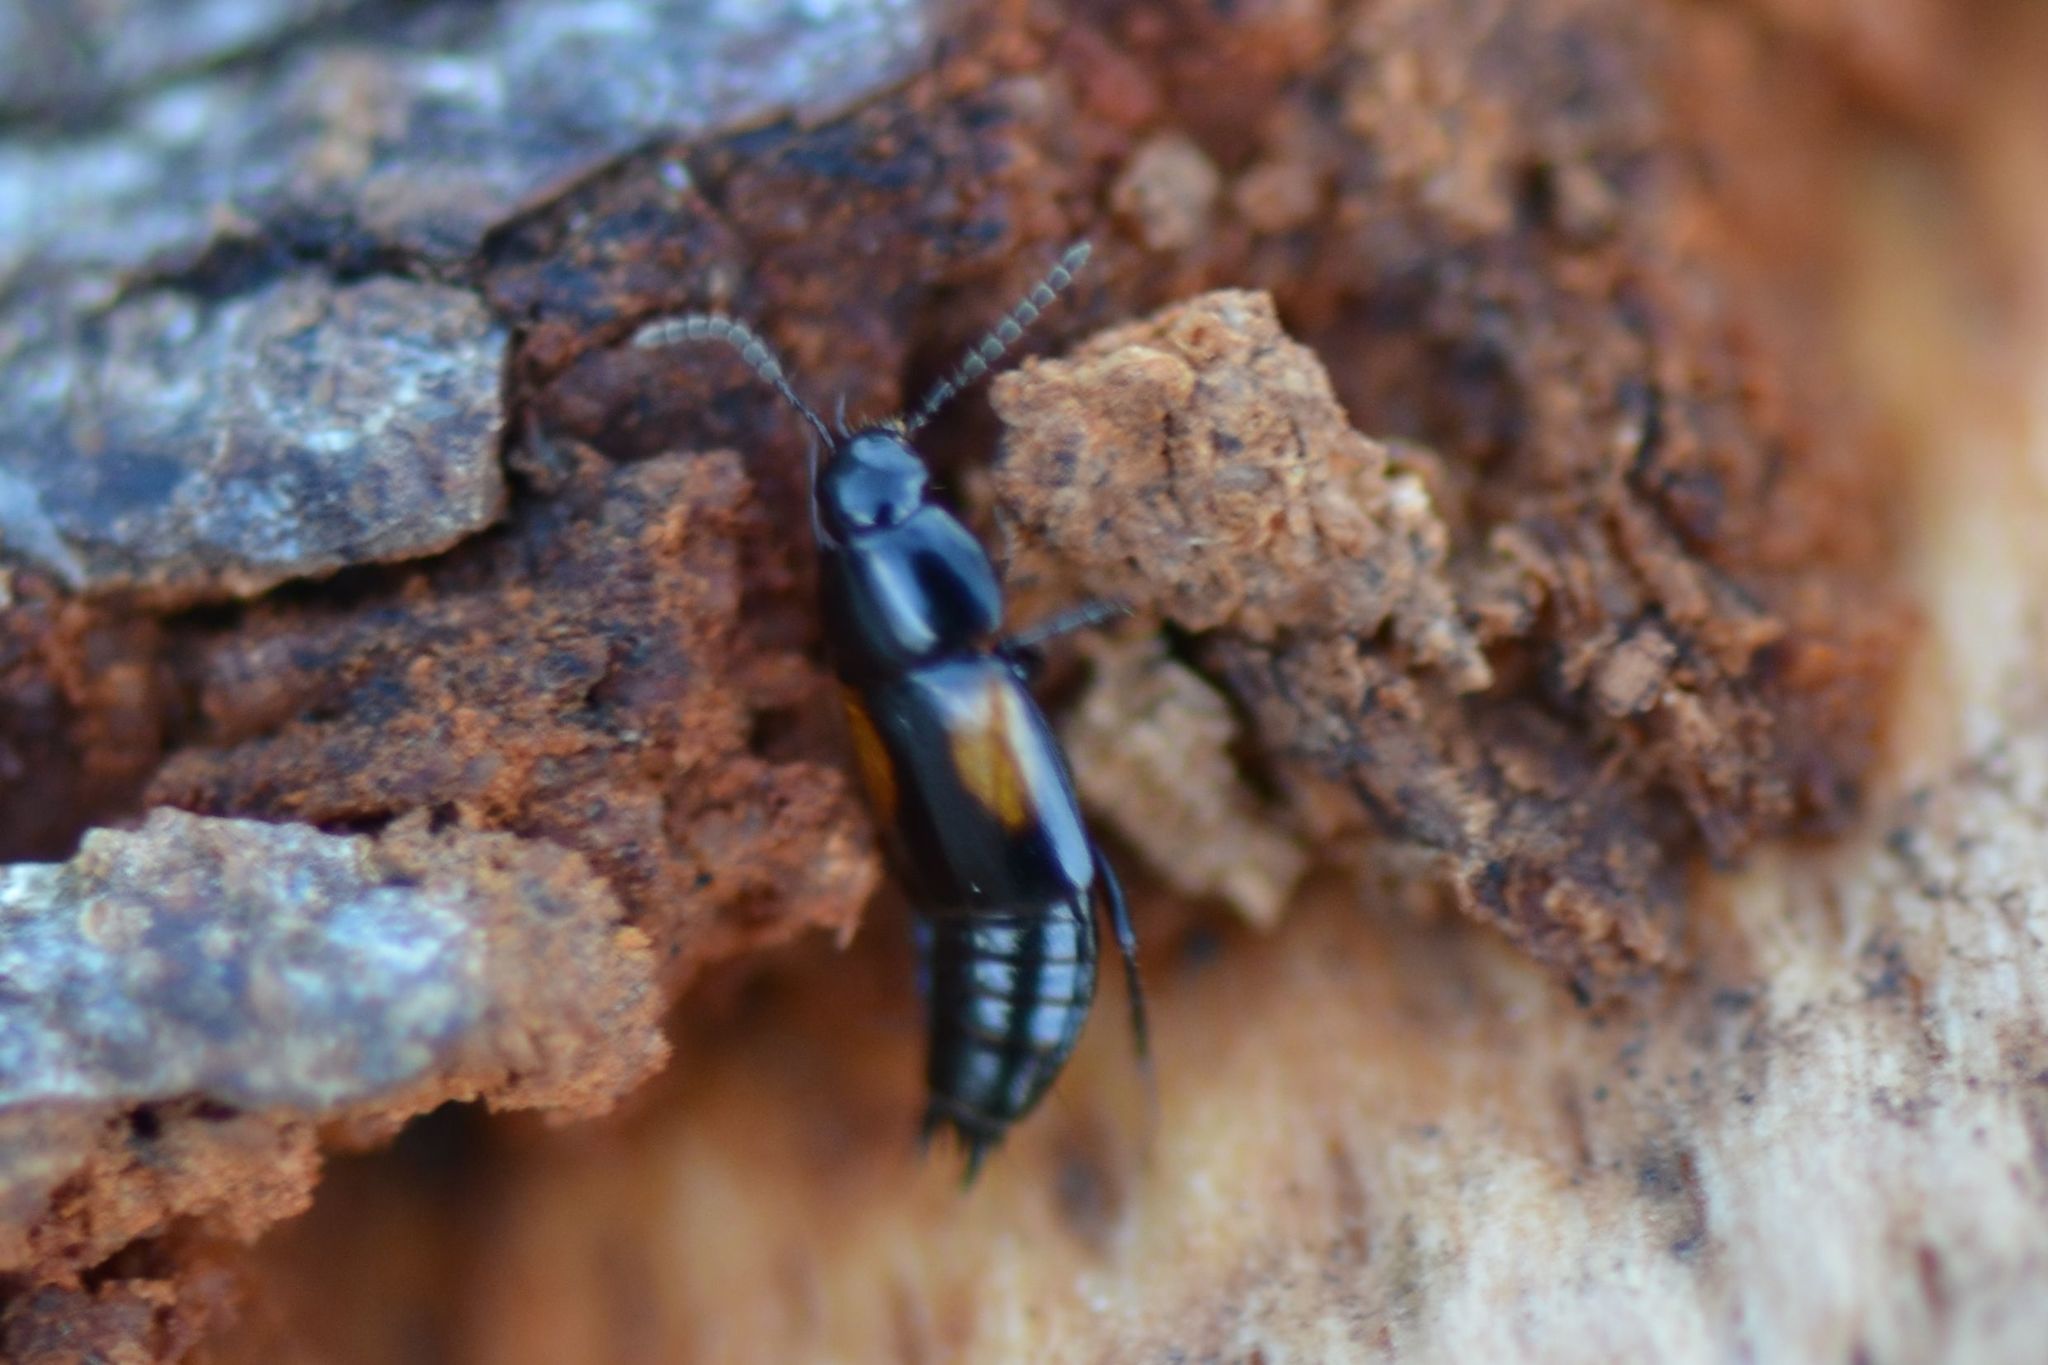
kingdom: Animalia
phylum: Arthropoda
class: Insecta
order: Coleoptera
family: Staphylinidae
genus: Tachinus
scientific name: Tachinus subterraneus
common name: Staph beetle
